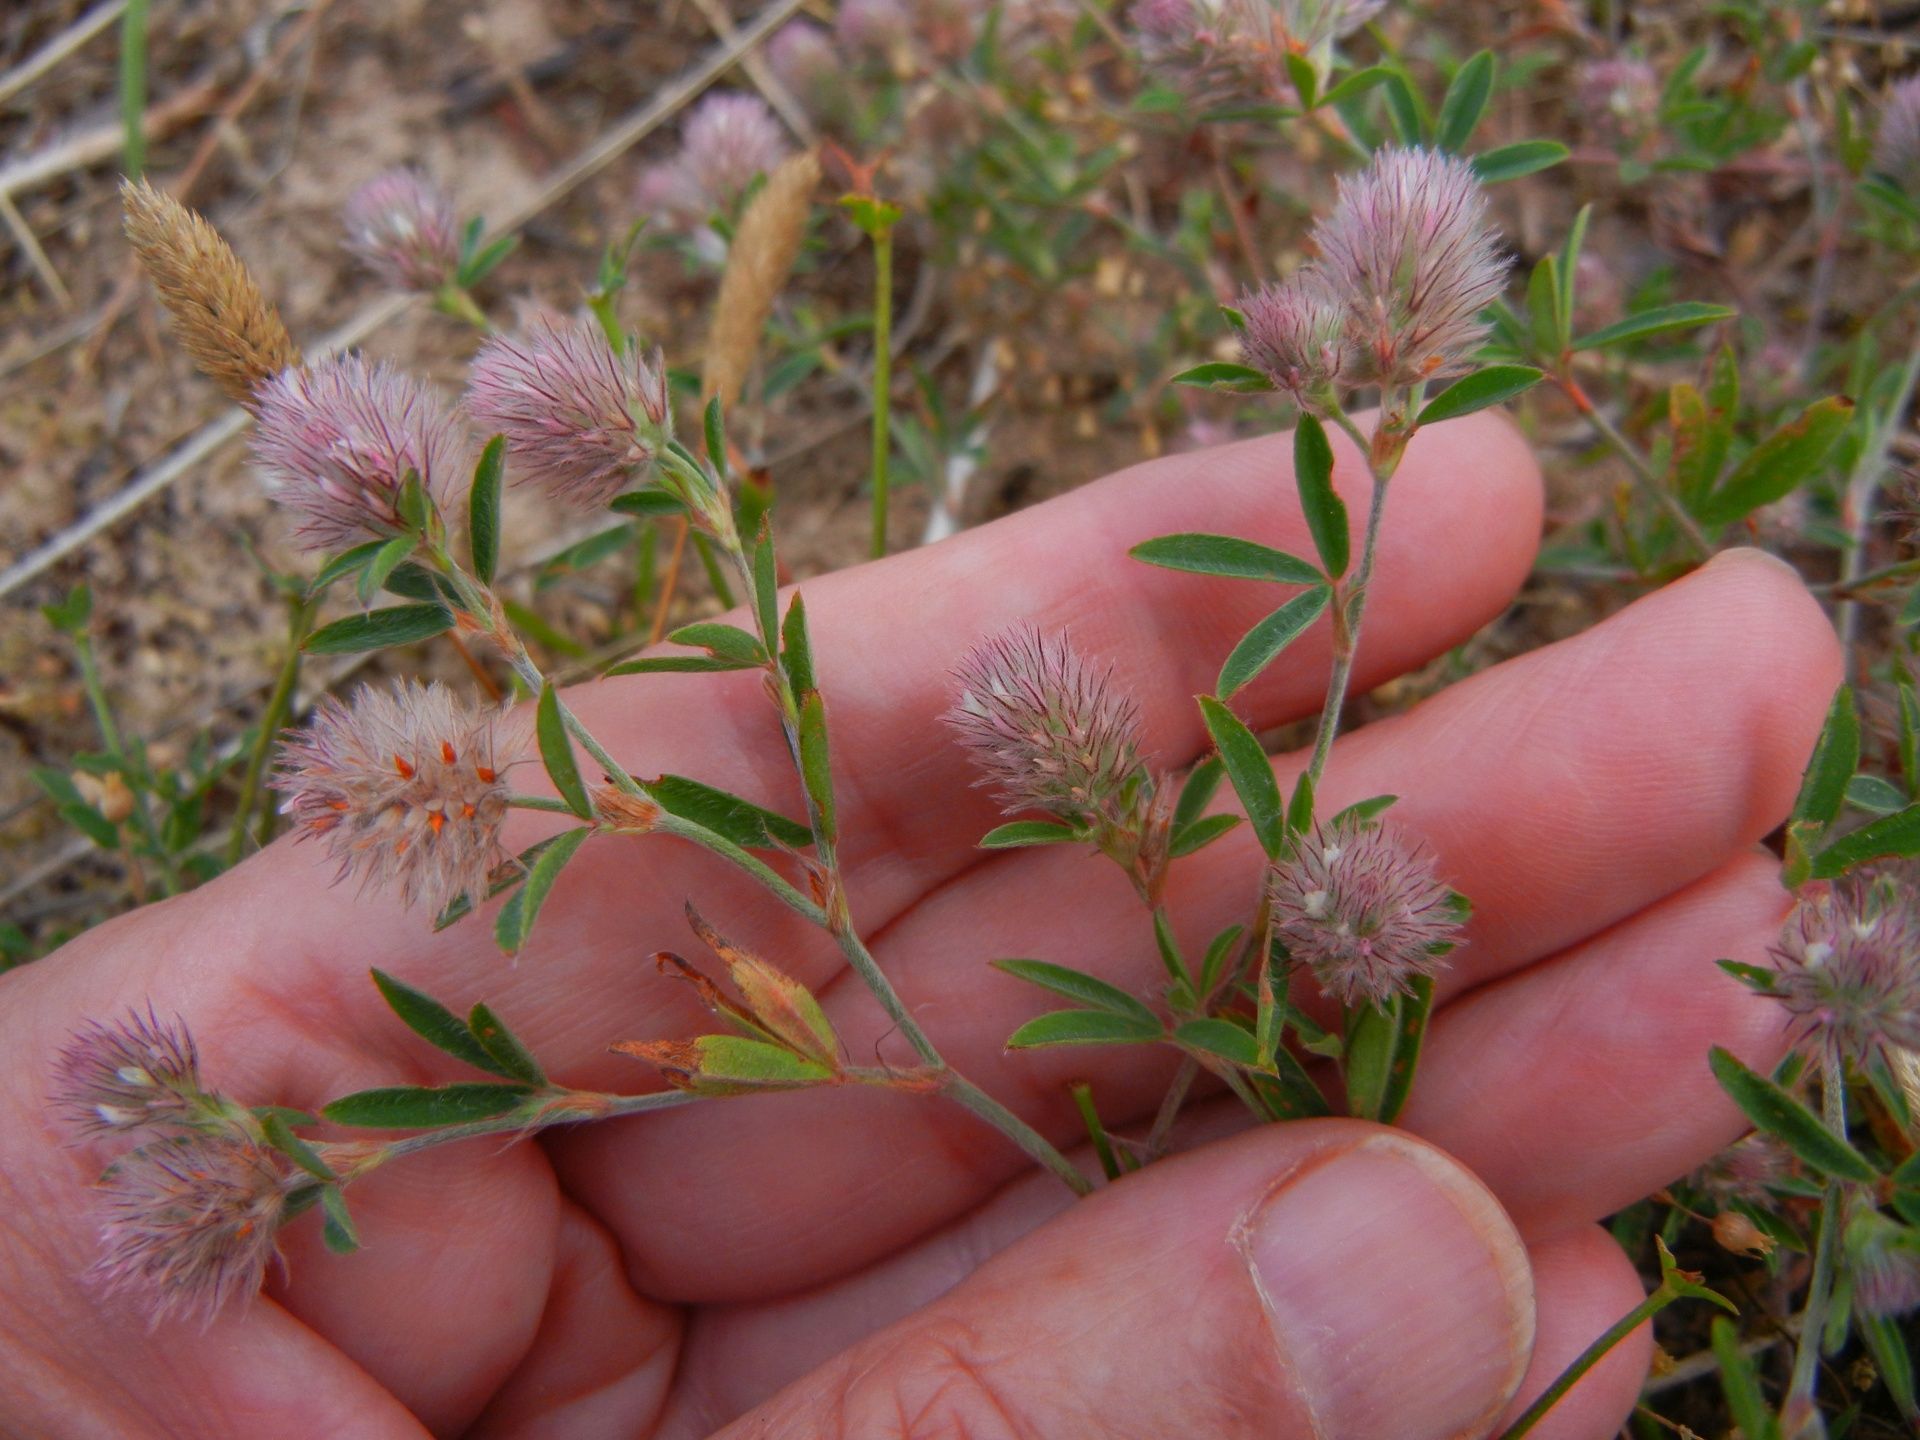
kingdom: Plantae
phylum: Tracheophyta
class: Magnoliopsida
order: Fabales
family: Fabaceae
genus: Trifolium
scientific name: Trifolium arvense
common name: Hare's-foot clover
